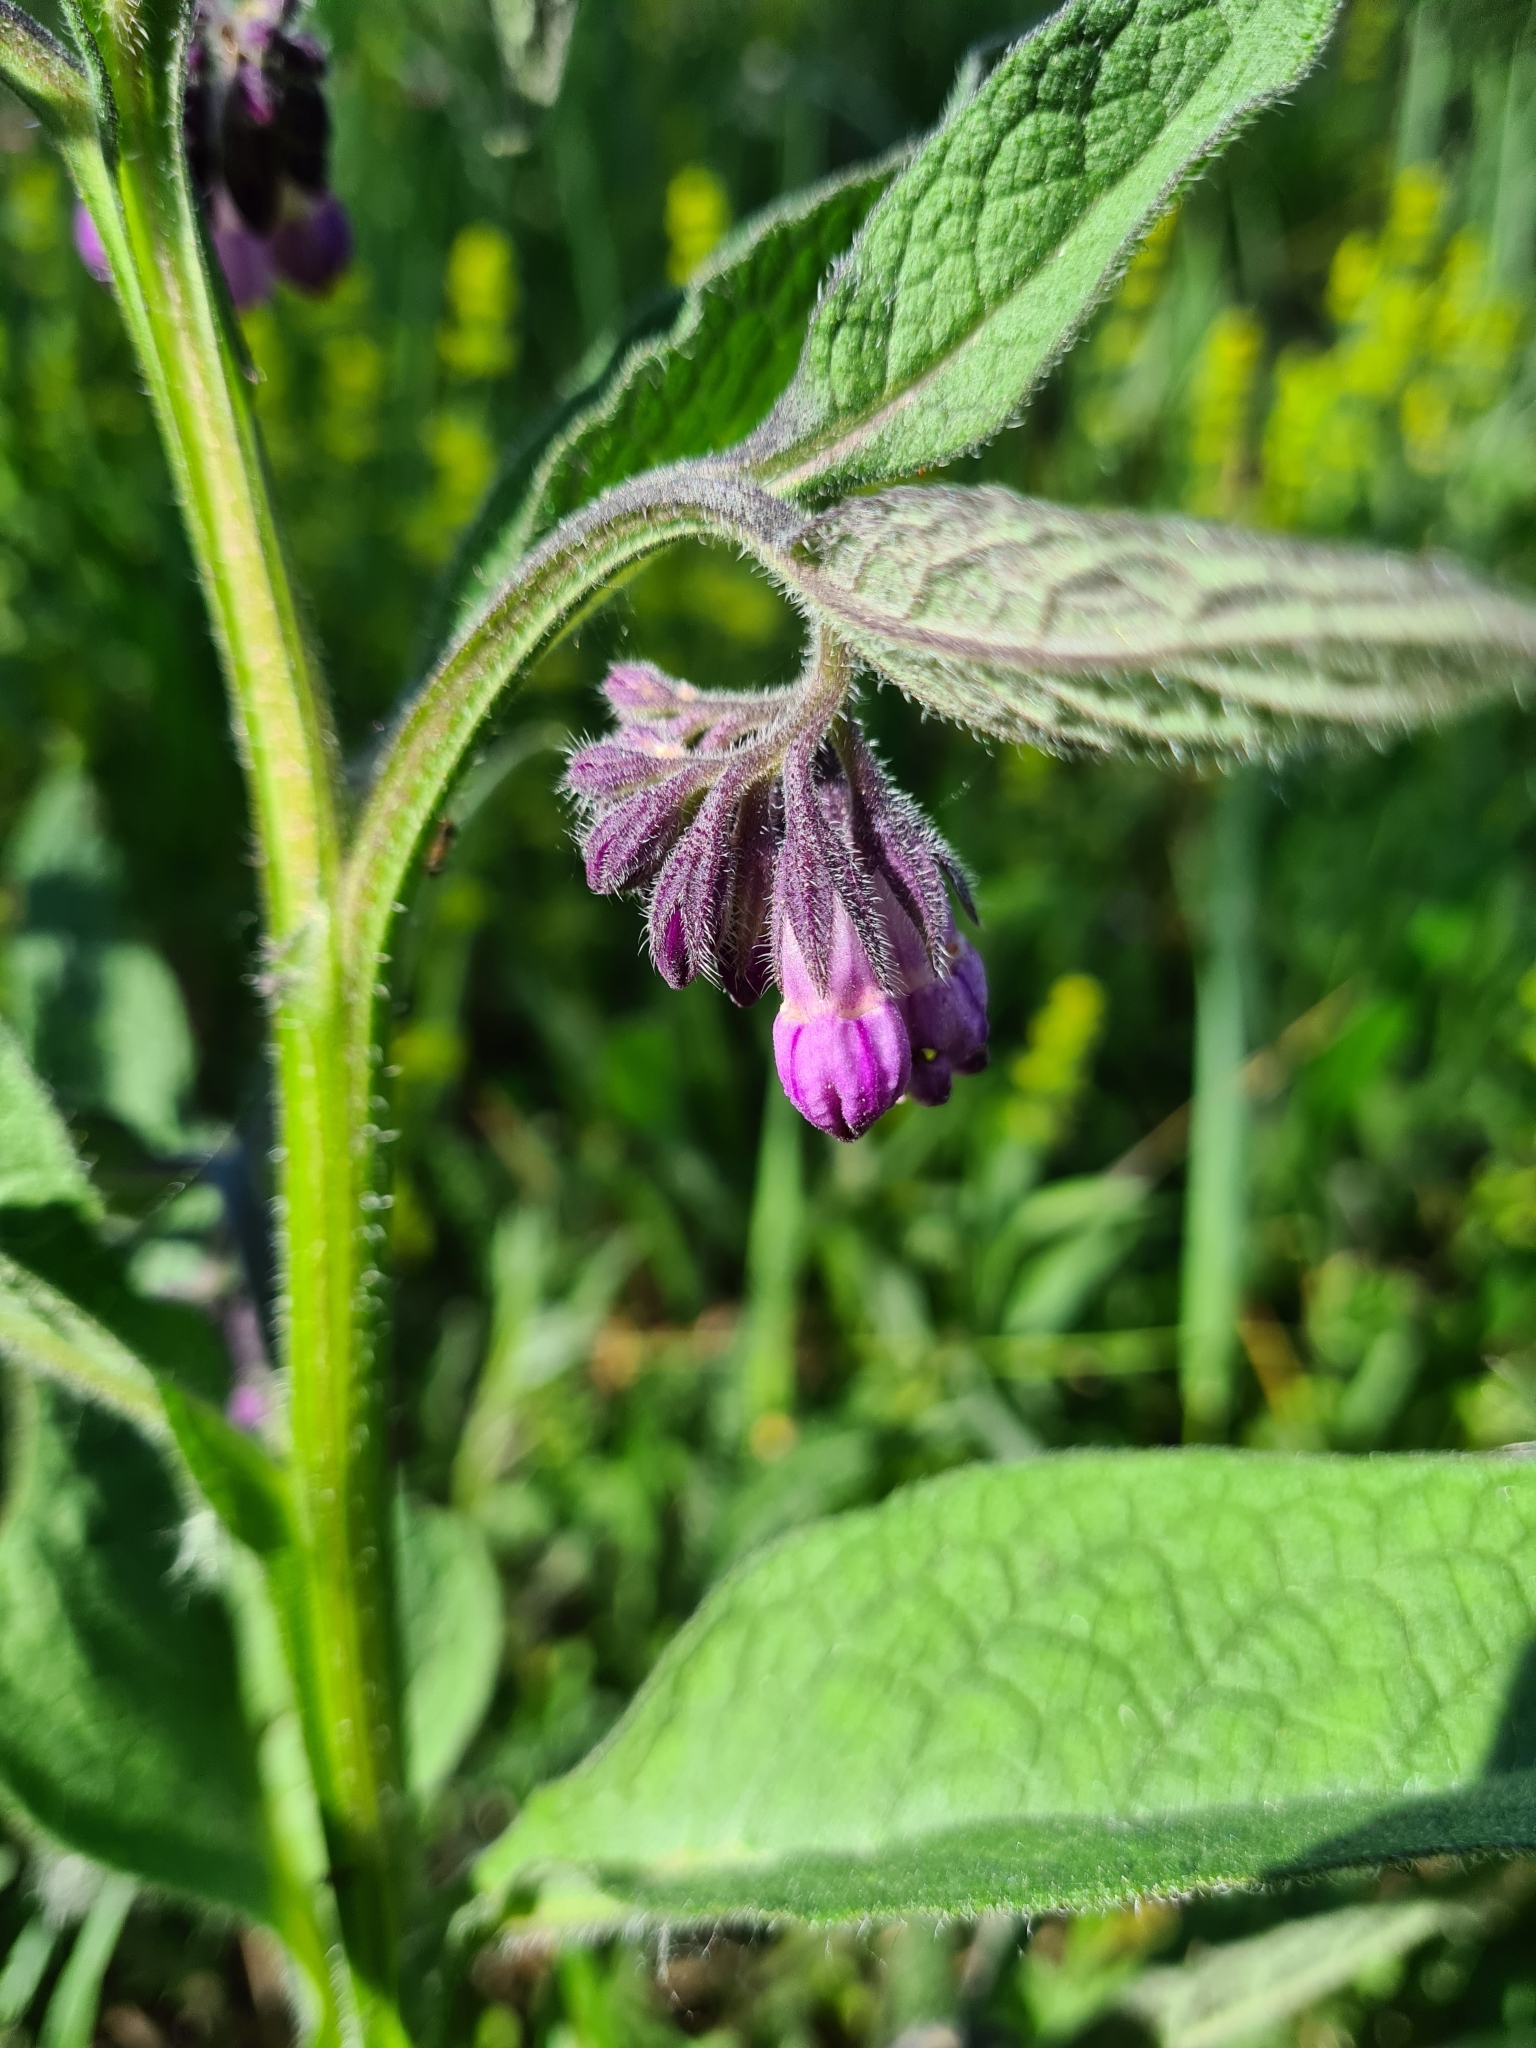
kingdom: Plantae
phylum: Tracheophyta
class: Magnoliopsida
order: Boraginales
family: Boraginaceae
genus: Symphytum
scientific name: Symphytum officinale
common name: Common comfrey
